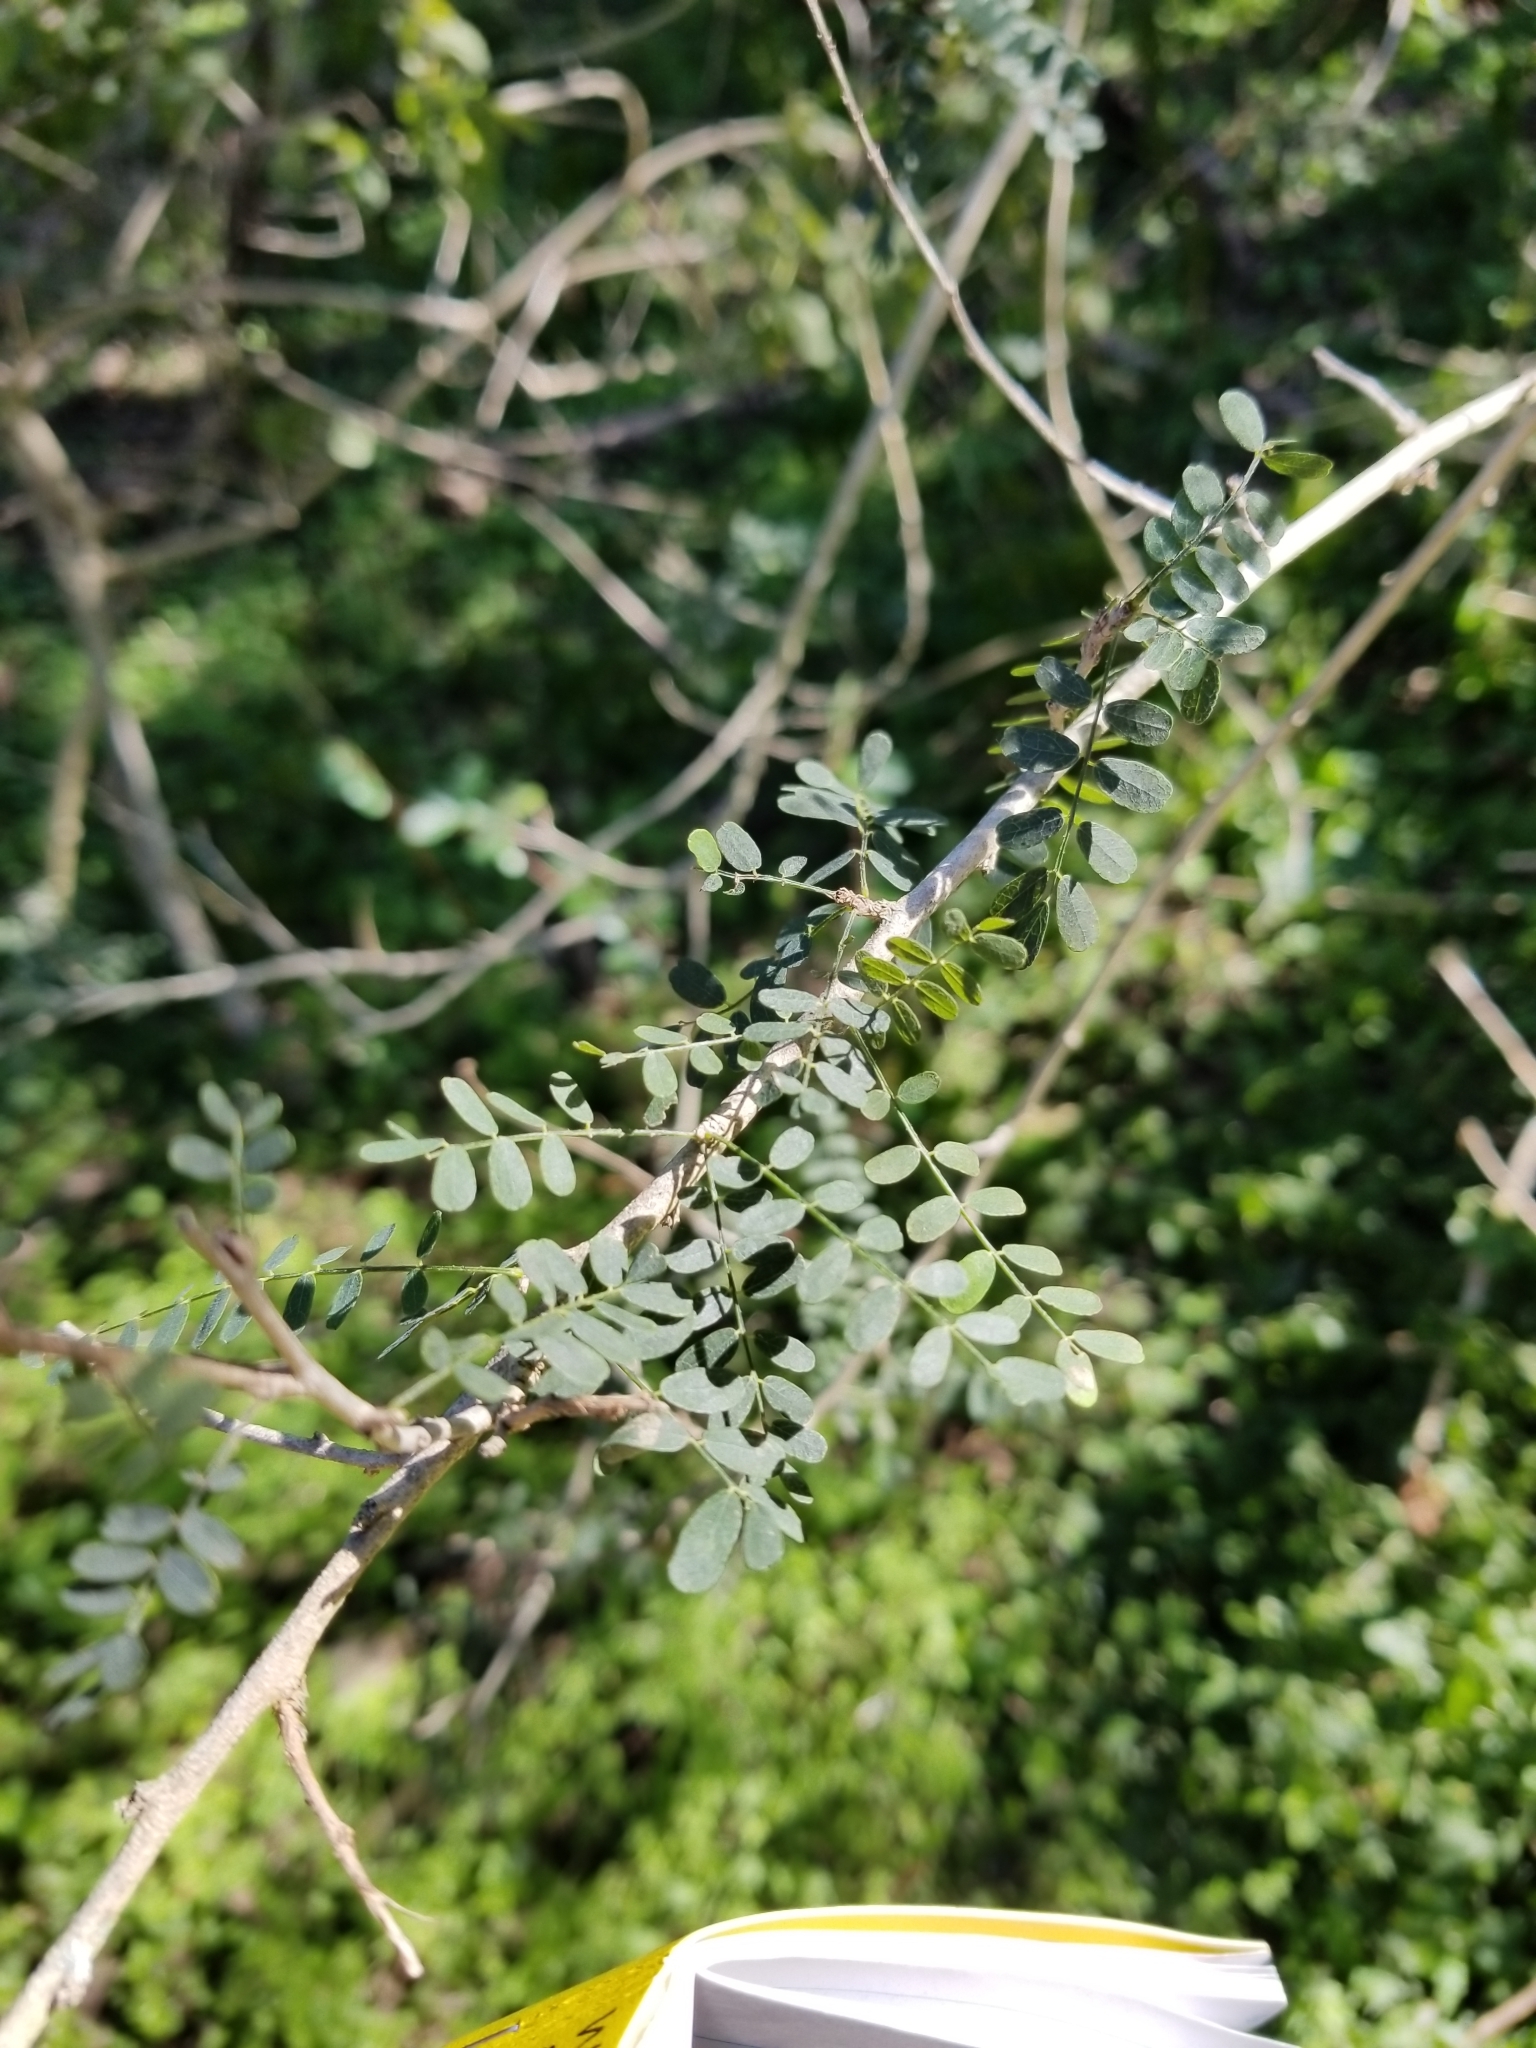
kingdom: Plantae
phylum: Tracheophyta
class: Magnoliopsida
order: Fabales
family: Fabaceae
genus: Eysenhardtia
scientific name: Eysenhardtia texana
